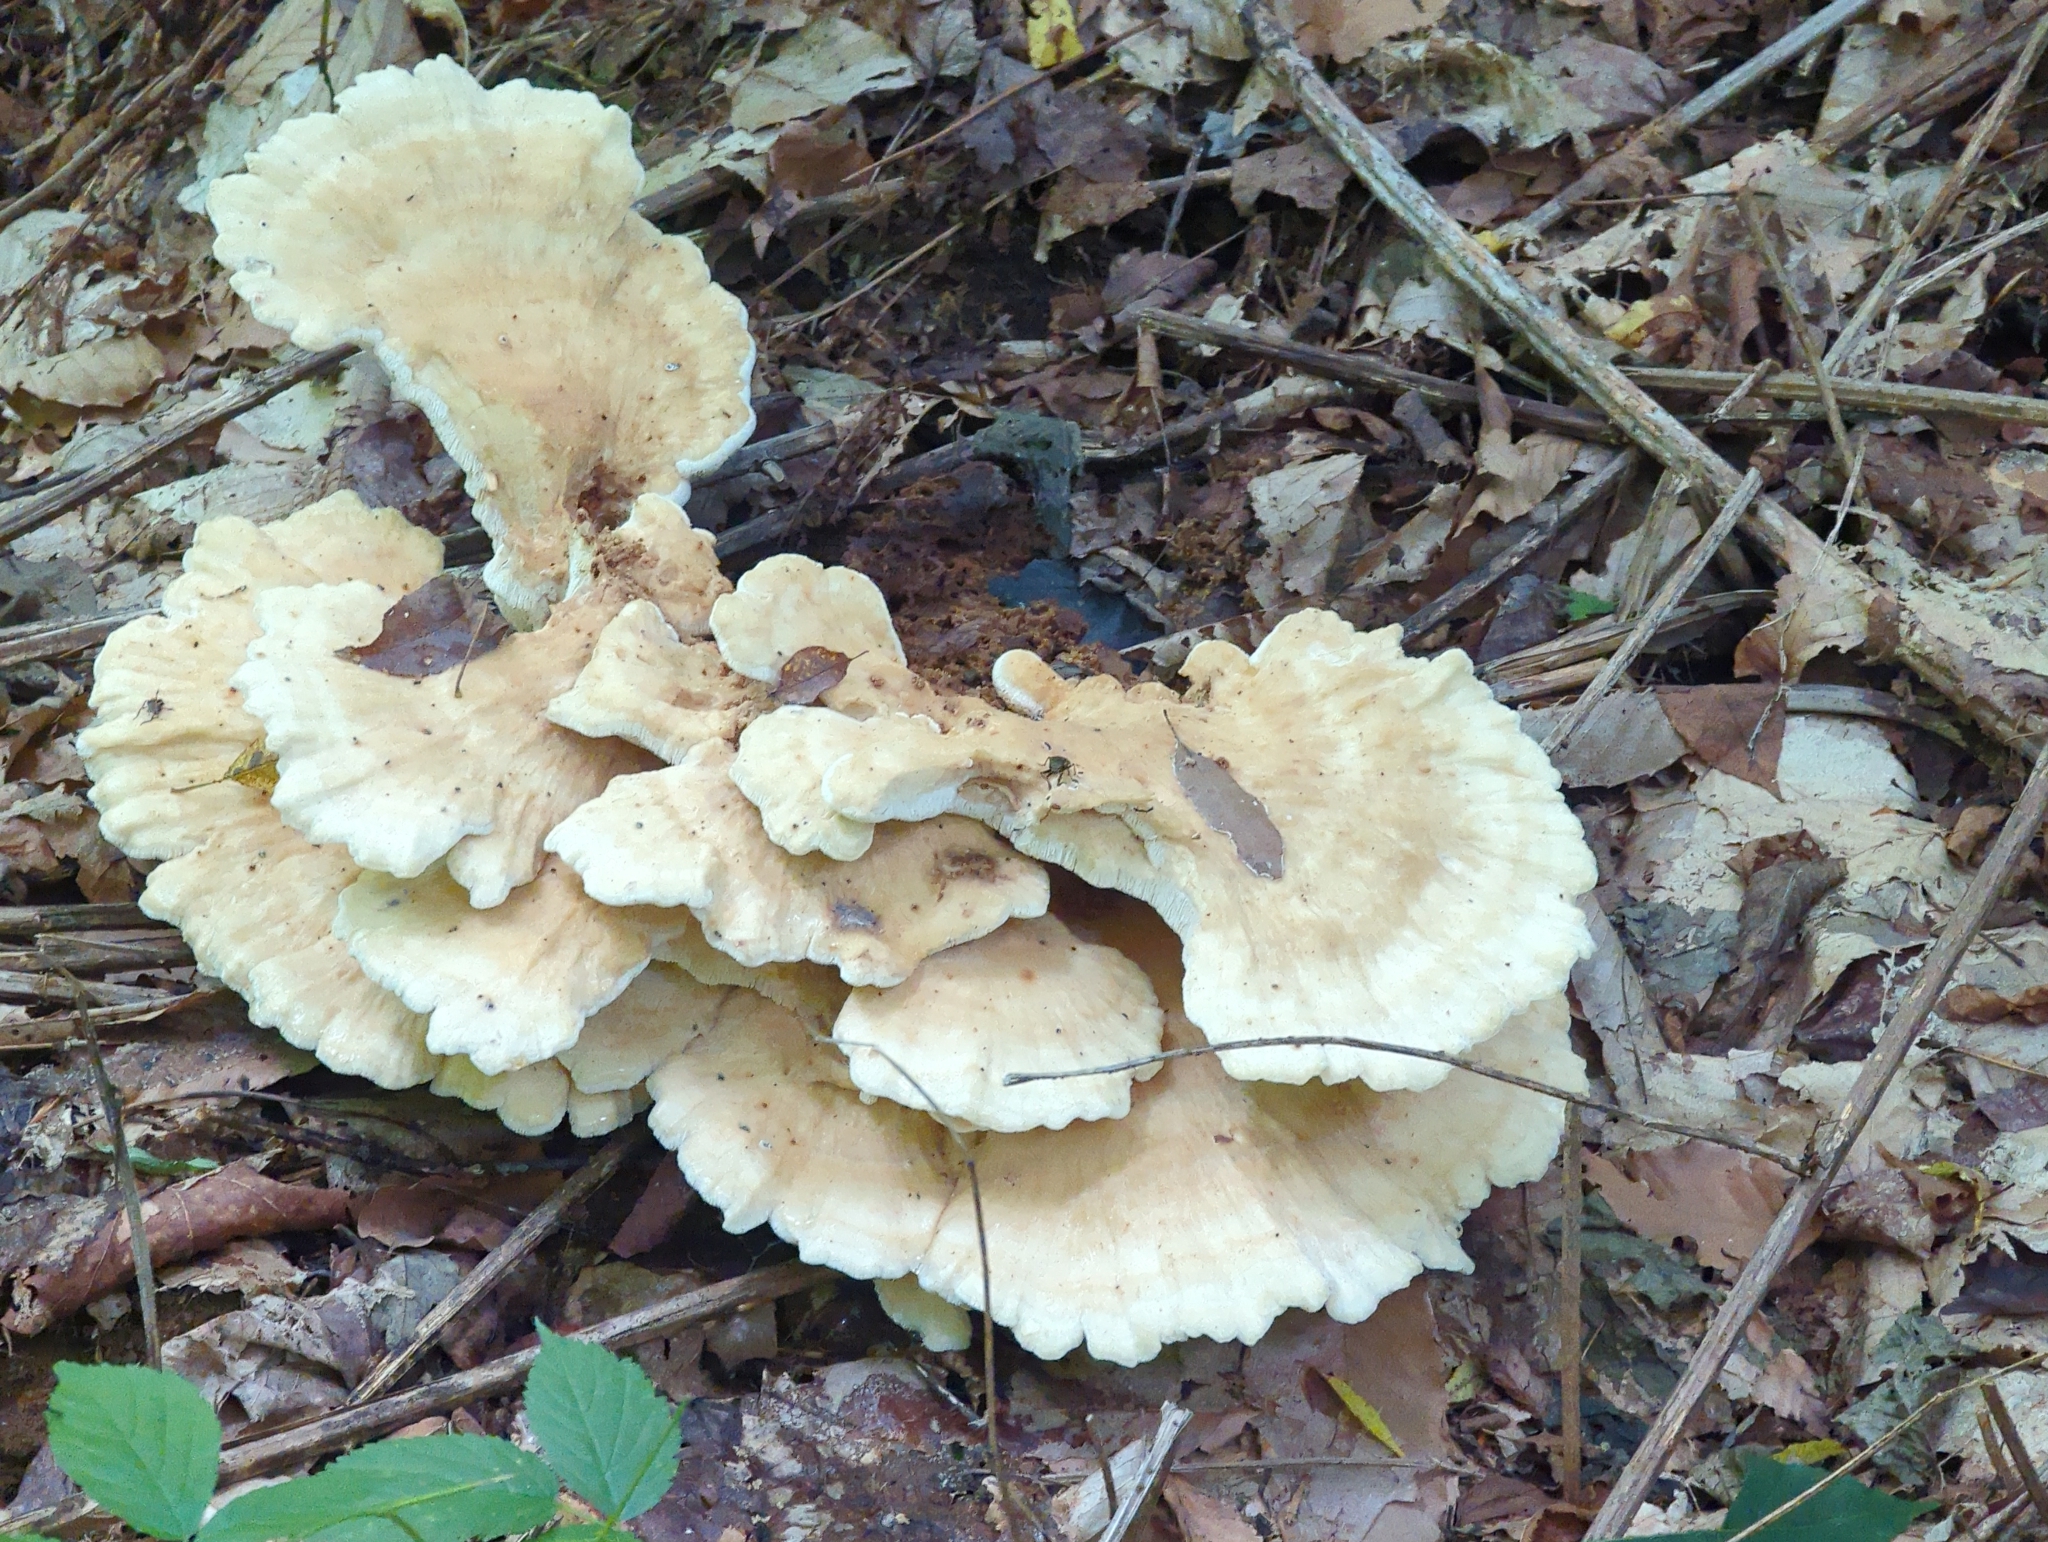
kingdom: Fungi
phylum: Basidiomycota
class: Agaricomycetes
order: Russulales
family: Bondarzewiaceae
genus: Bondarzewia
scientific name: Bondarzewia berkeleyi
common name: Berkeley's polypore
